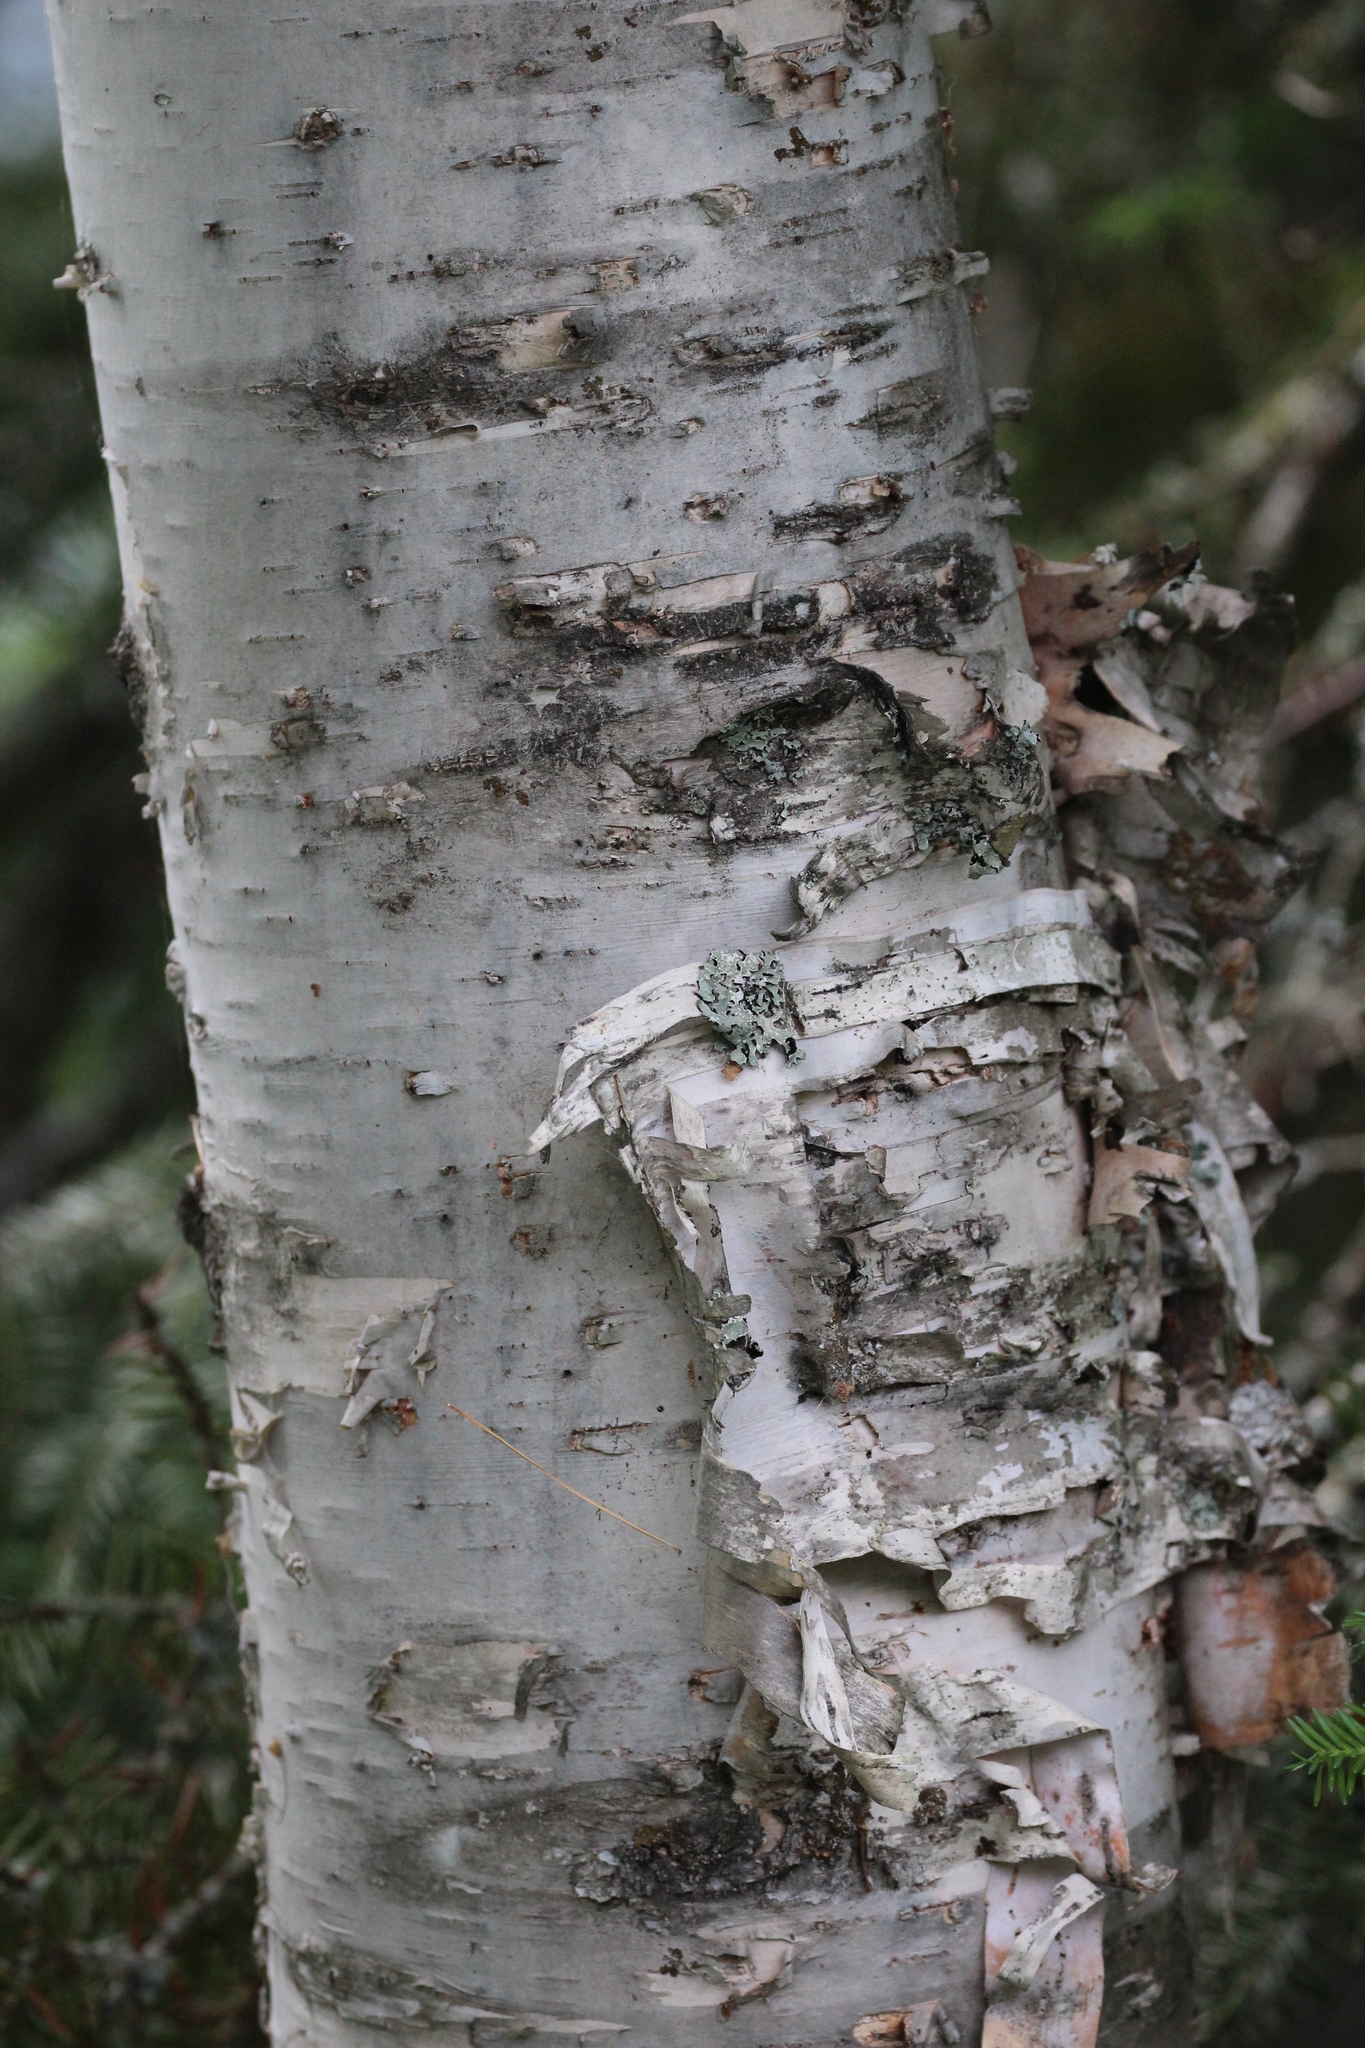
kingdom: Plantae
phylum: Tracheophyta
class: Magnoliopsida
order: Fagales
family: Betulaceae
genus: Betula
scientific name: Betula papyrifera
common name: Paper birch
